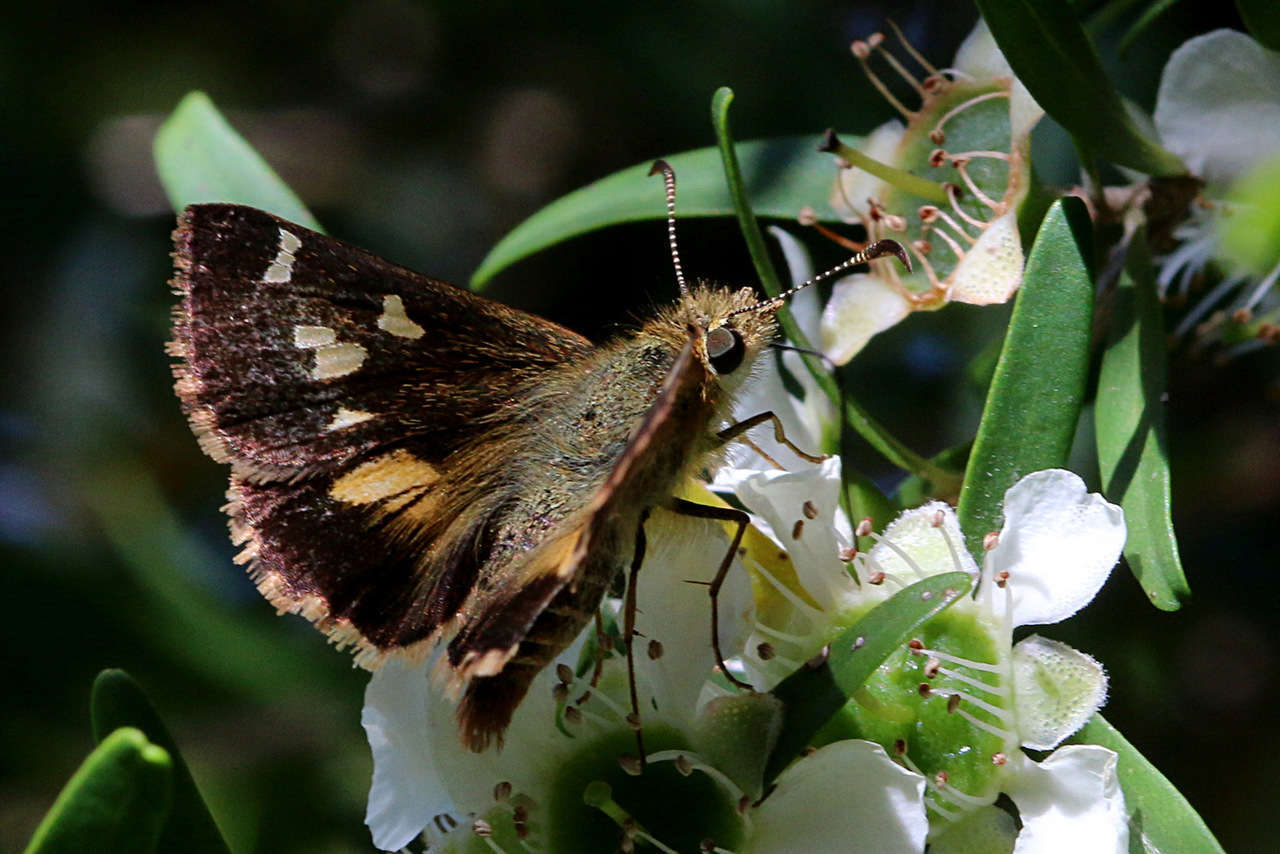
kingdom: Animalia
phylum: Arthropoda
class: Insecta
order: Lepidoptera
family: Hesperiidae
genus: Dispar
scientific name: Dispar compacta
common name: Barred skipper
